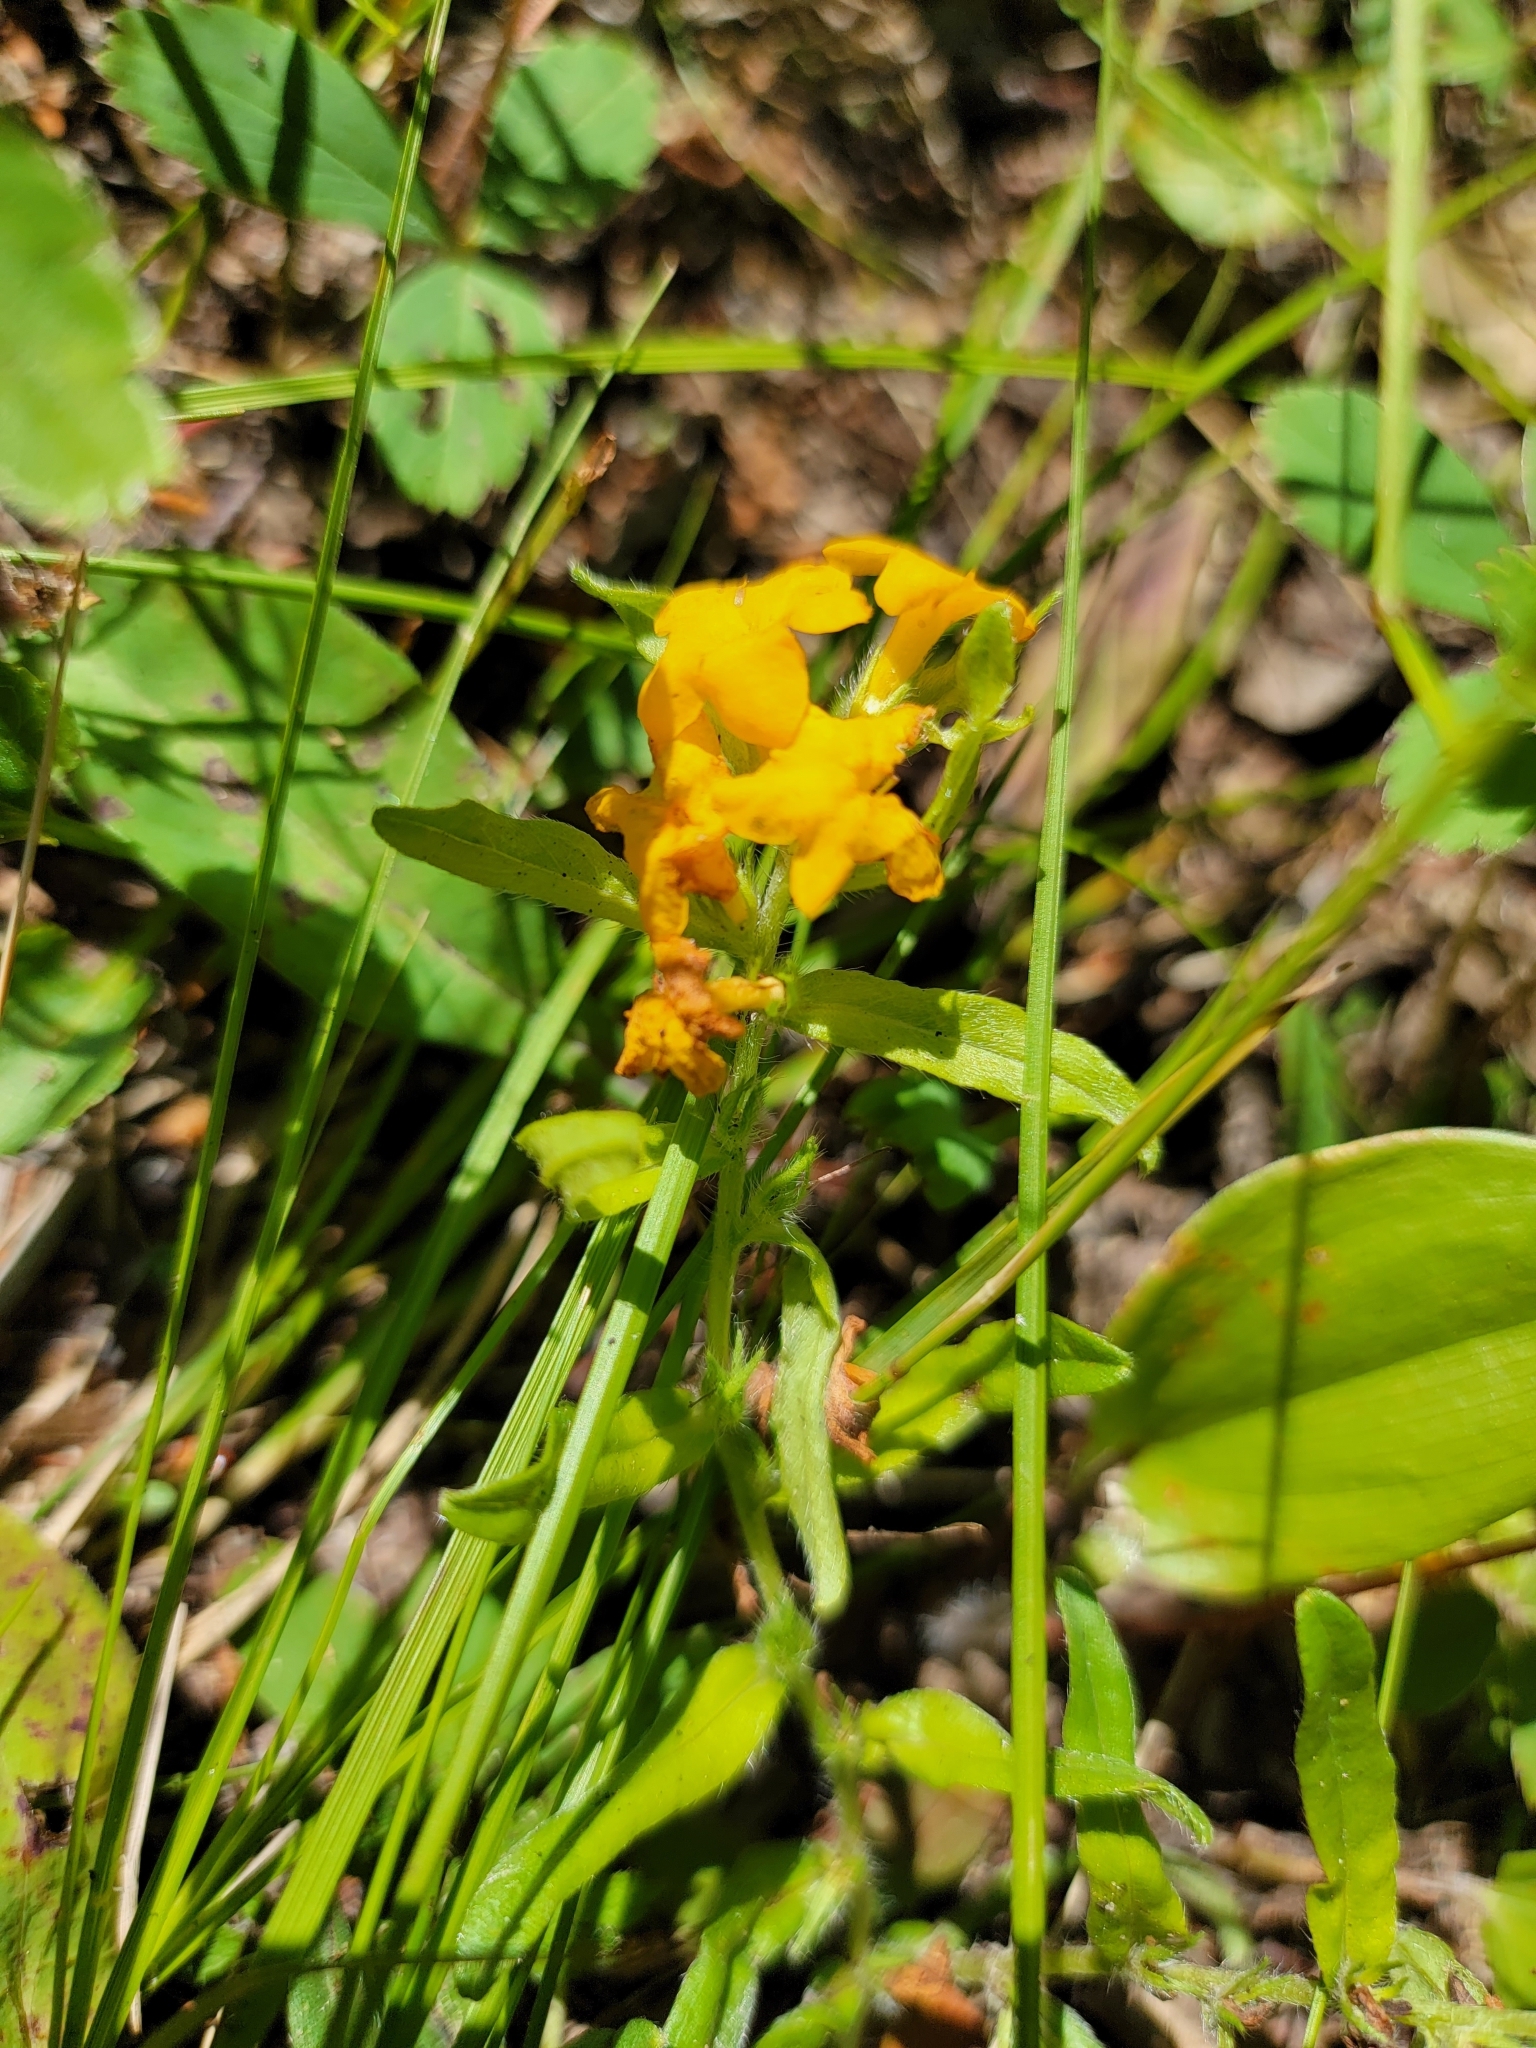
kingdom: Plantae
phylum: Tracheophyta
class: Magnoliopsida
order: Boraginales
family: Boraginaceae
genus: Lithospermum
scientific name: Lithospermum canescens
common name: Hoary puccoon
